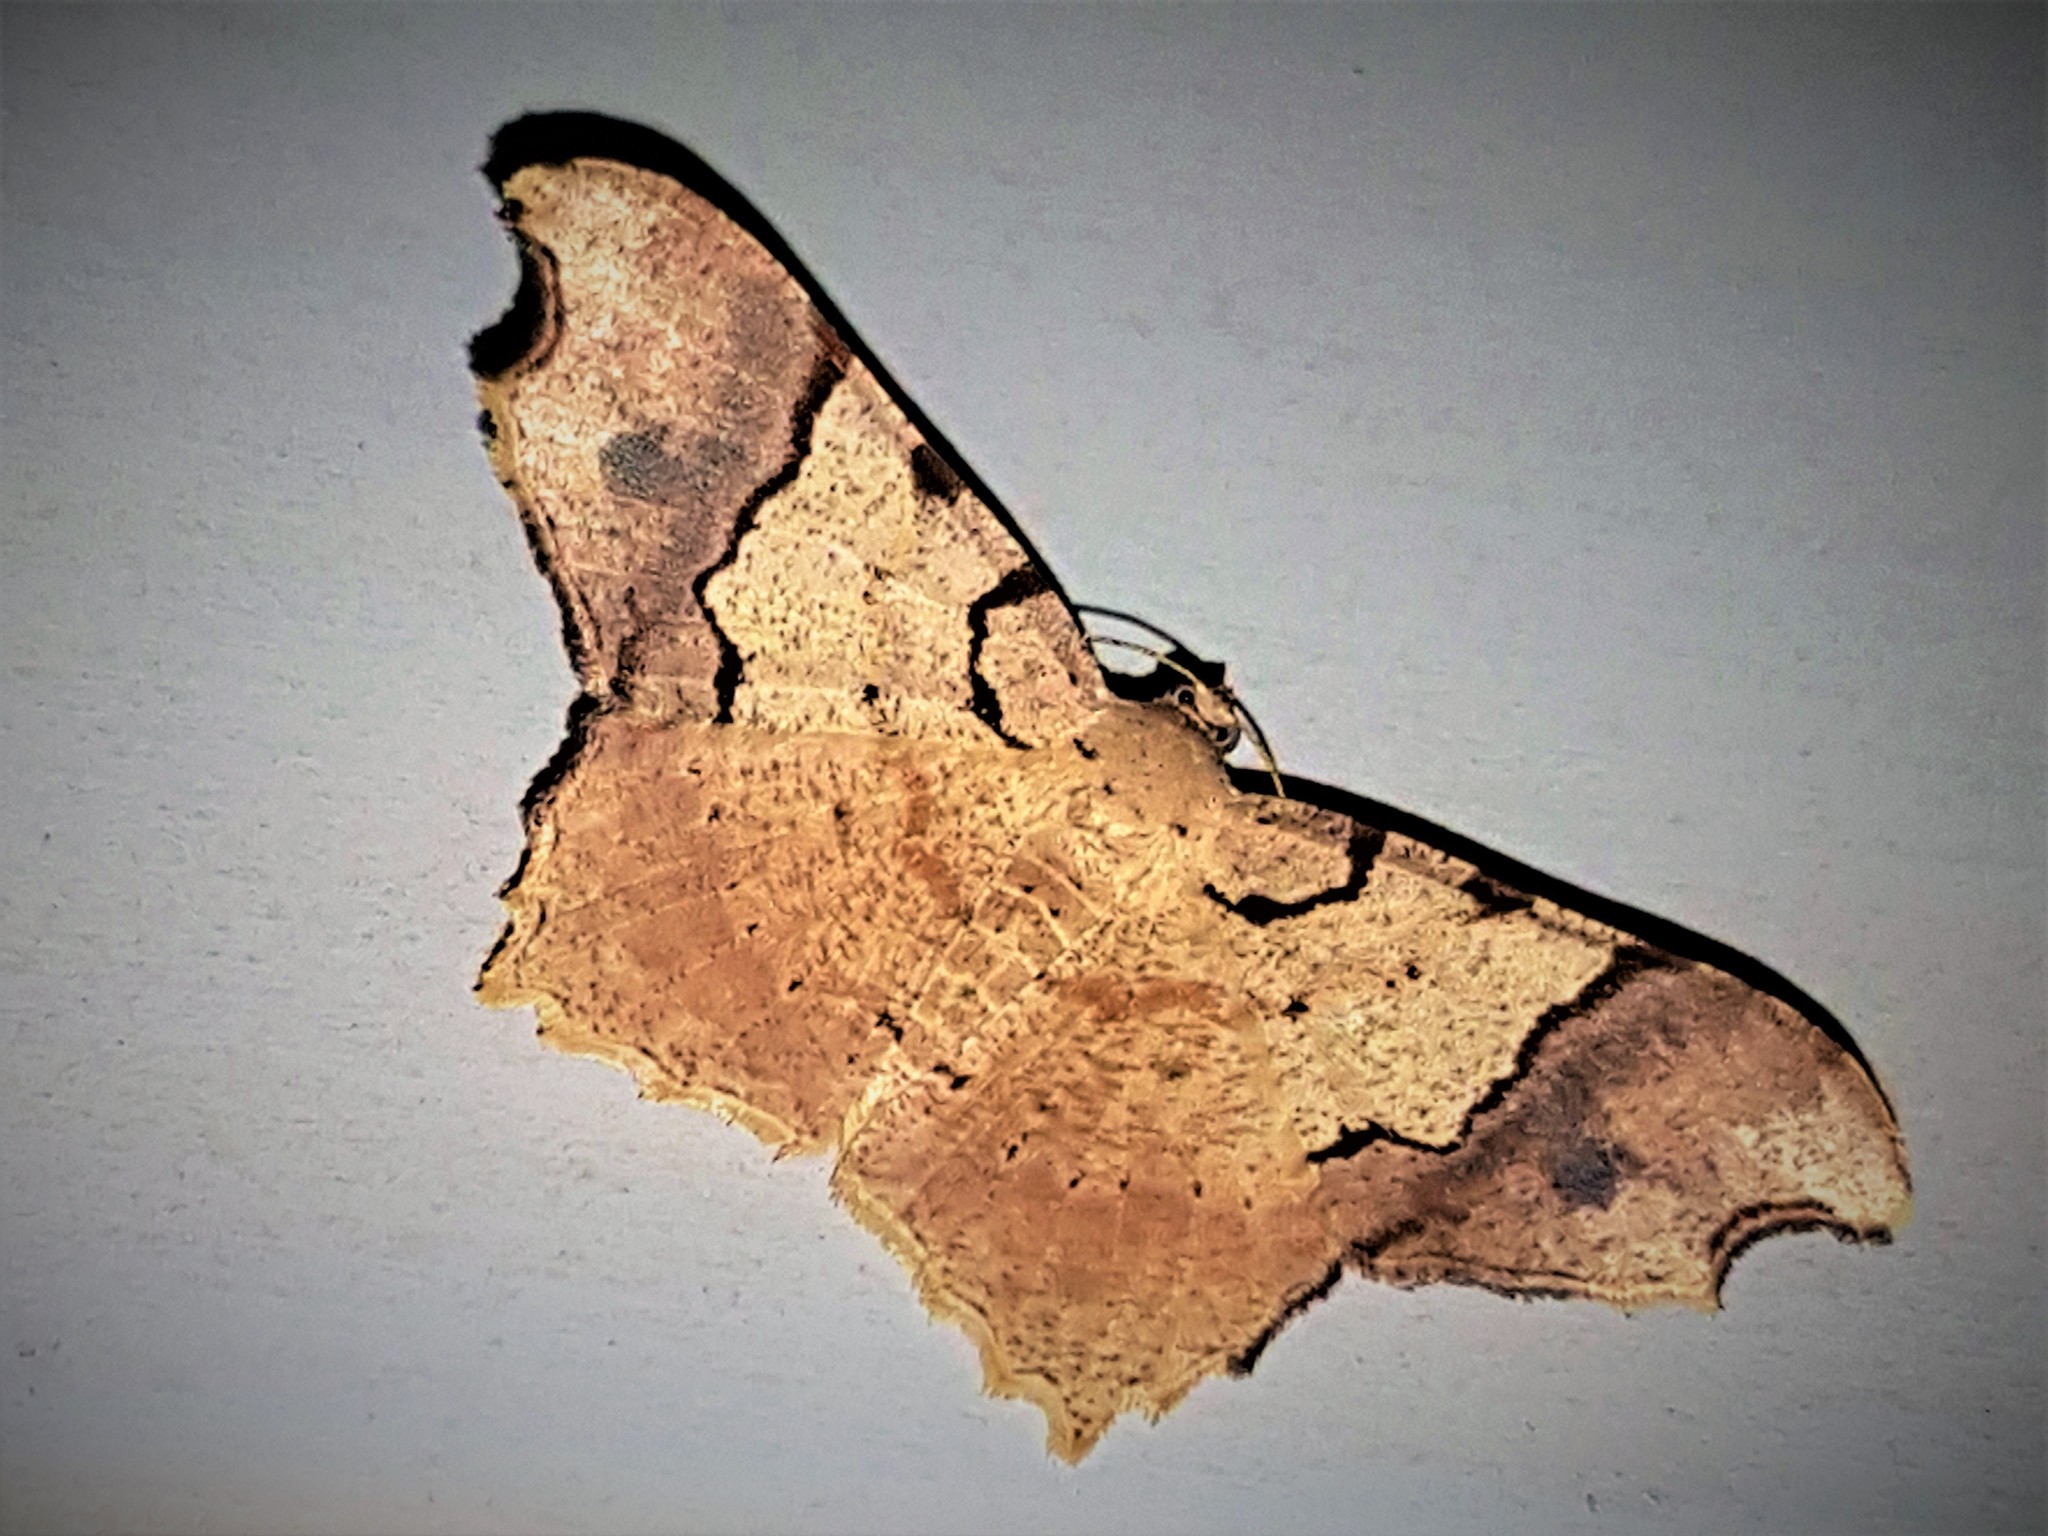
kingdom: Animalia
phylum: Arthropoda
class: Insecta
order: Lepidoptera
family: Geometridae
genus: Macaria
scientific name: Macaria ostia
